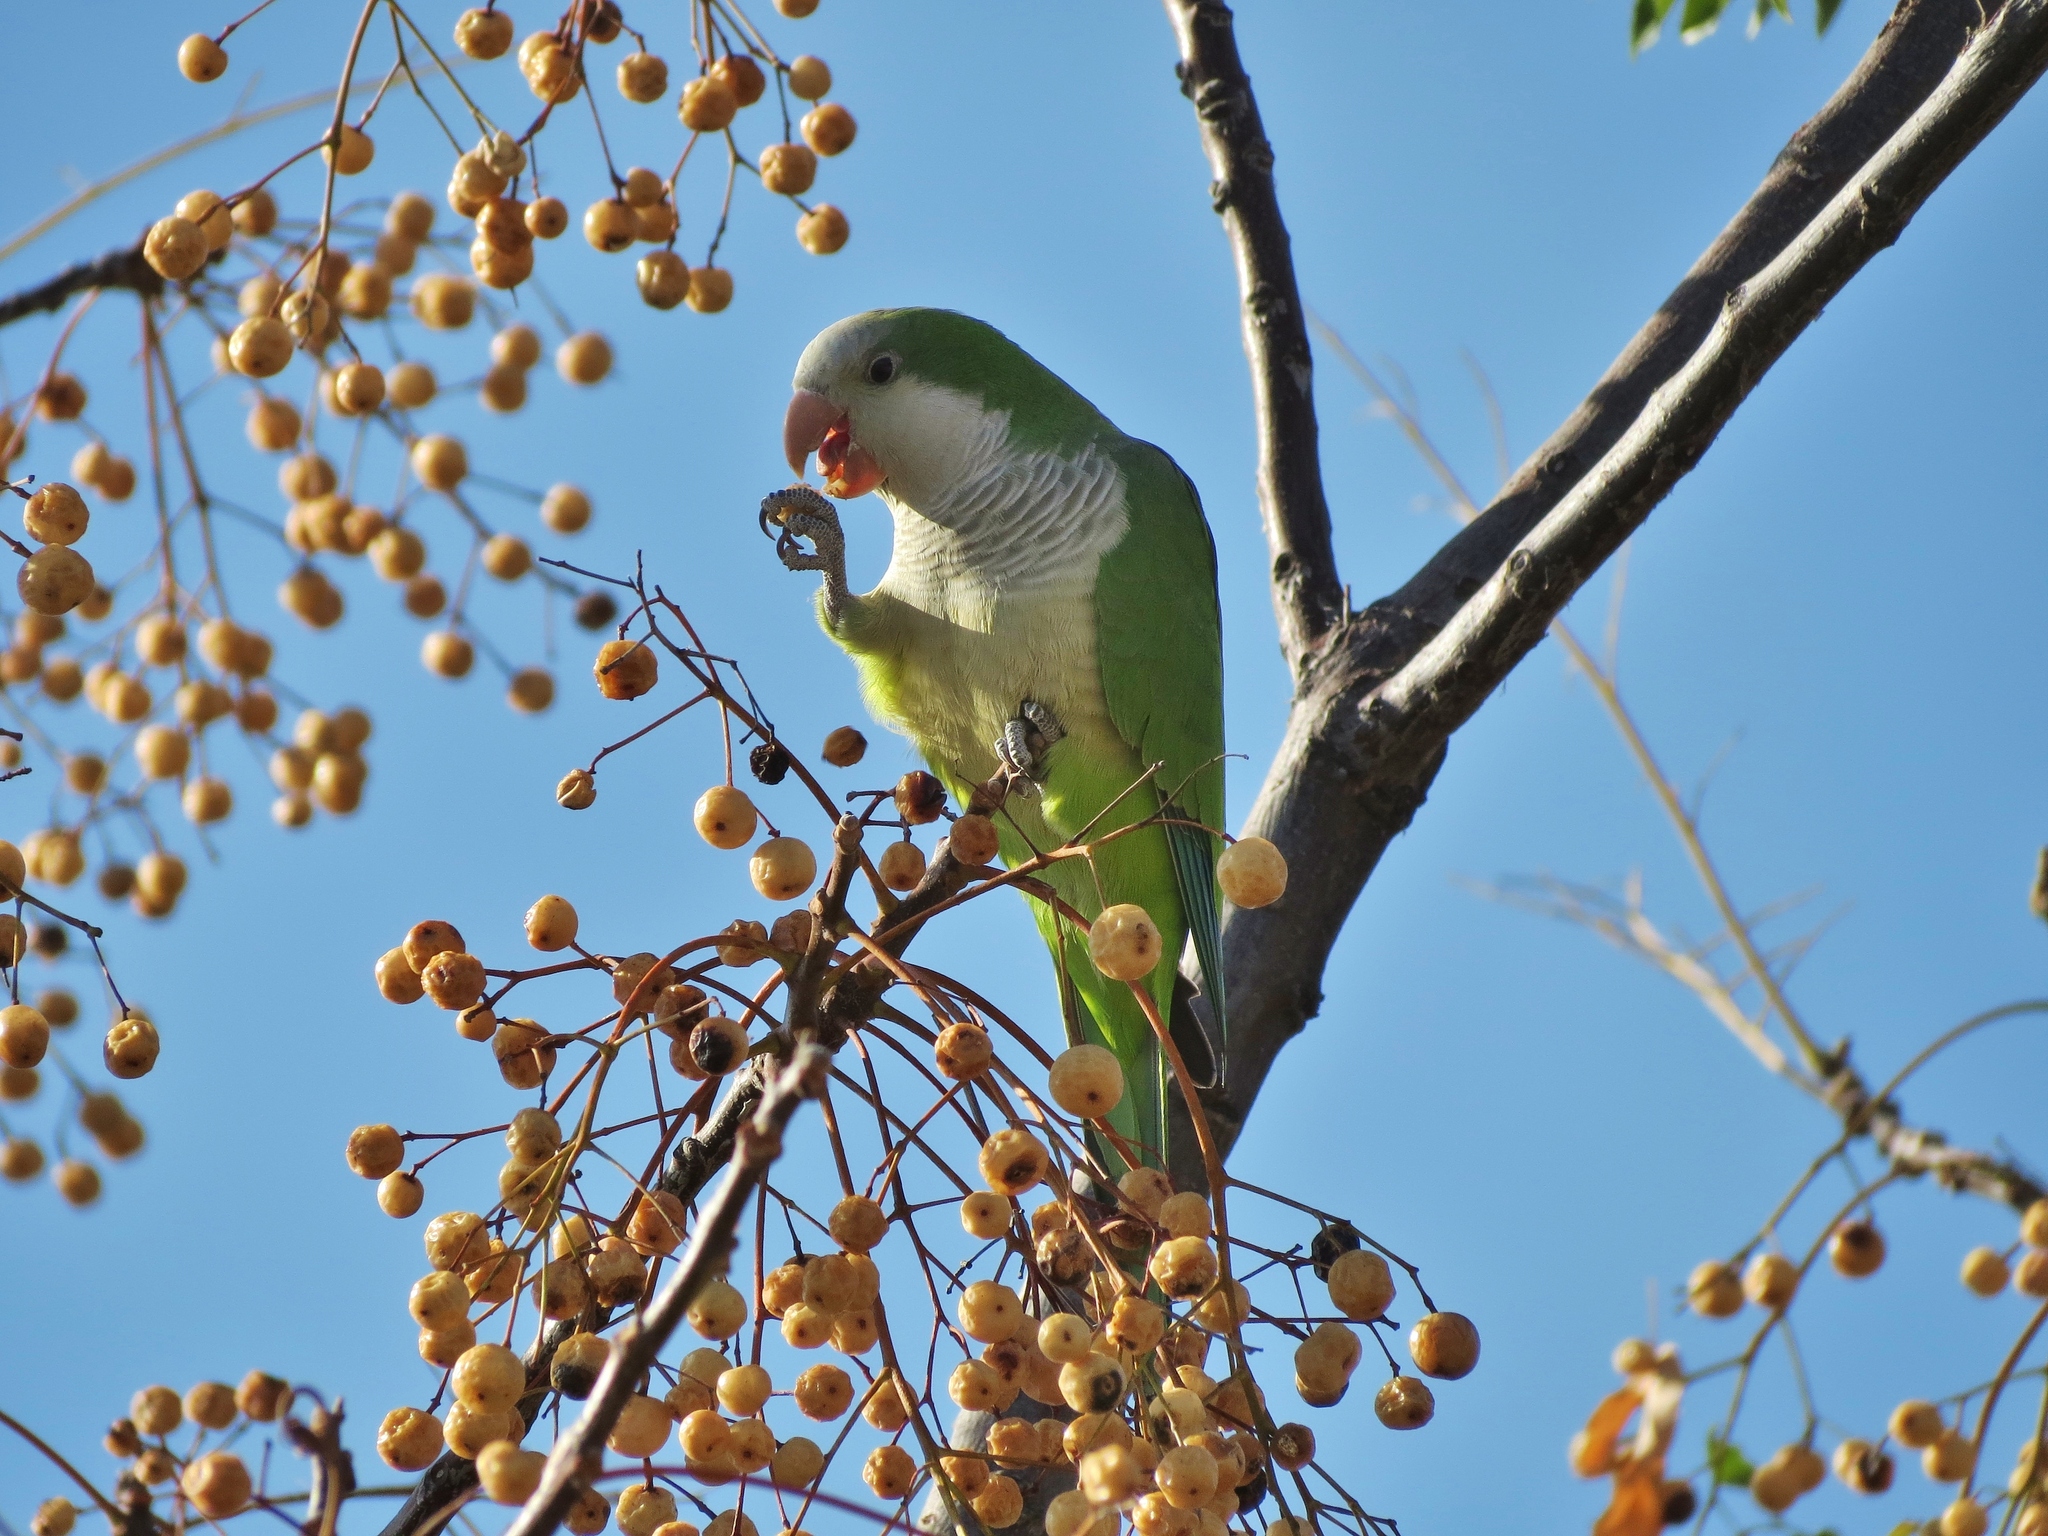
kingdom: Animalia
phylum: Chordata
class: Aves
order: Psittaciformes
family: Psittacidae
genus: Myiopsitta
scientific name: Myiopsitta monachus
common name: Monk parakeet
